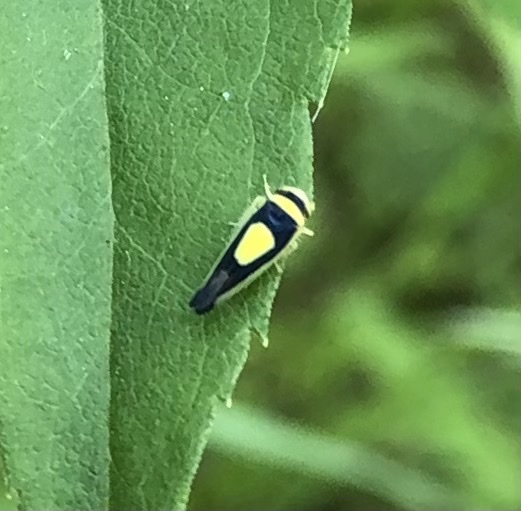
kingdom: Animalia
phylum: Arthropoda
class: Insecta
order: Hemiptera
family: Cicadellidae
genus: Colladonus
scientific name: Colladonus clitellarius
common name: The saddleback leafhopper
